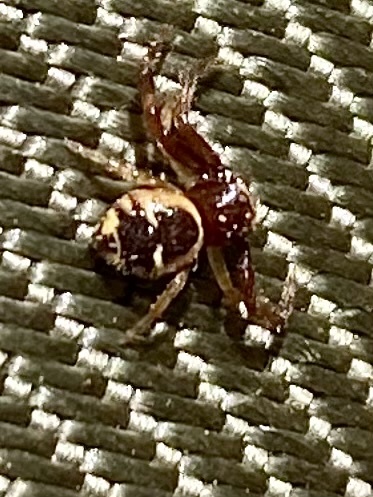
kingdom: Animalia
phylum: Arthropoda
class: Arachnida
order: Araneae
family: Thomisidae
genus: Synema
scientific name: Synema globosum
